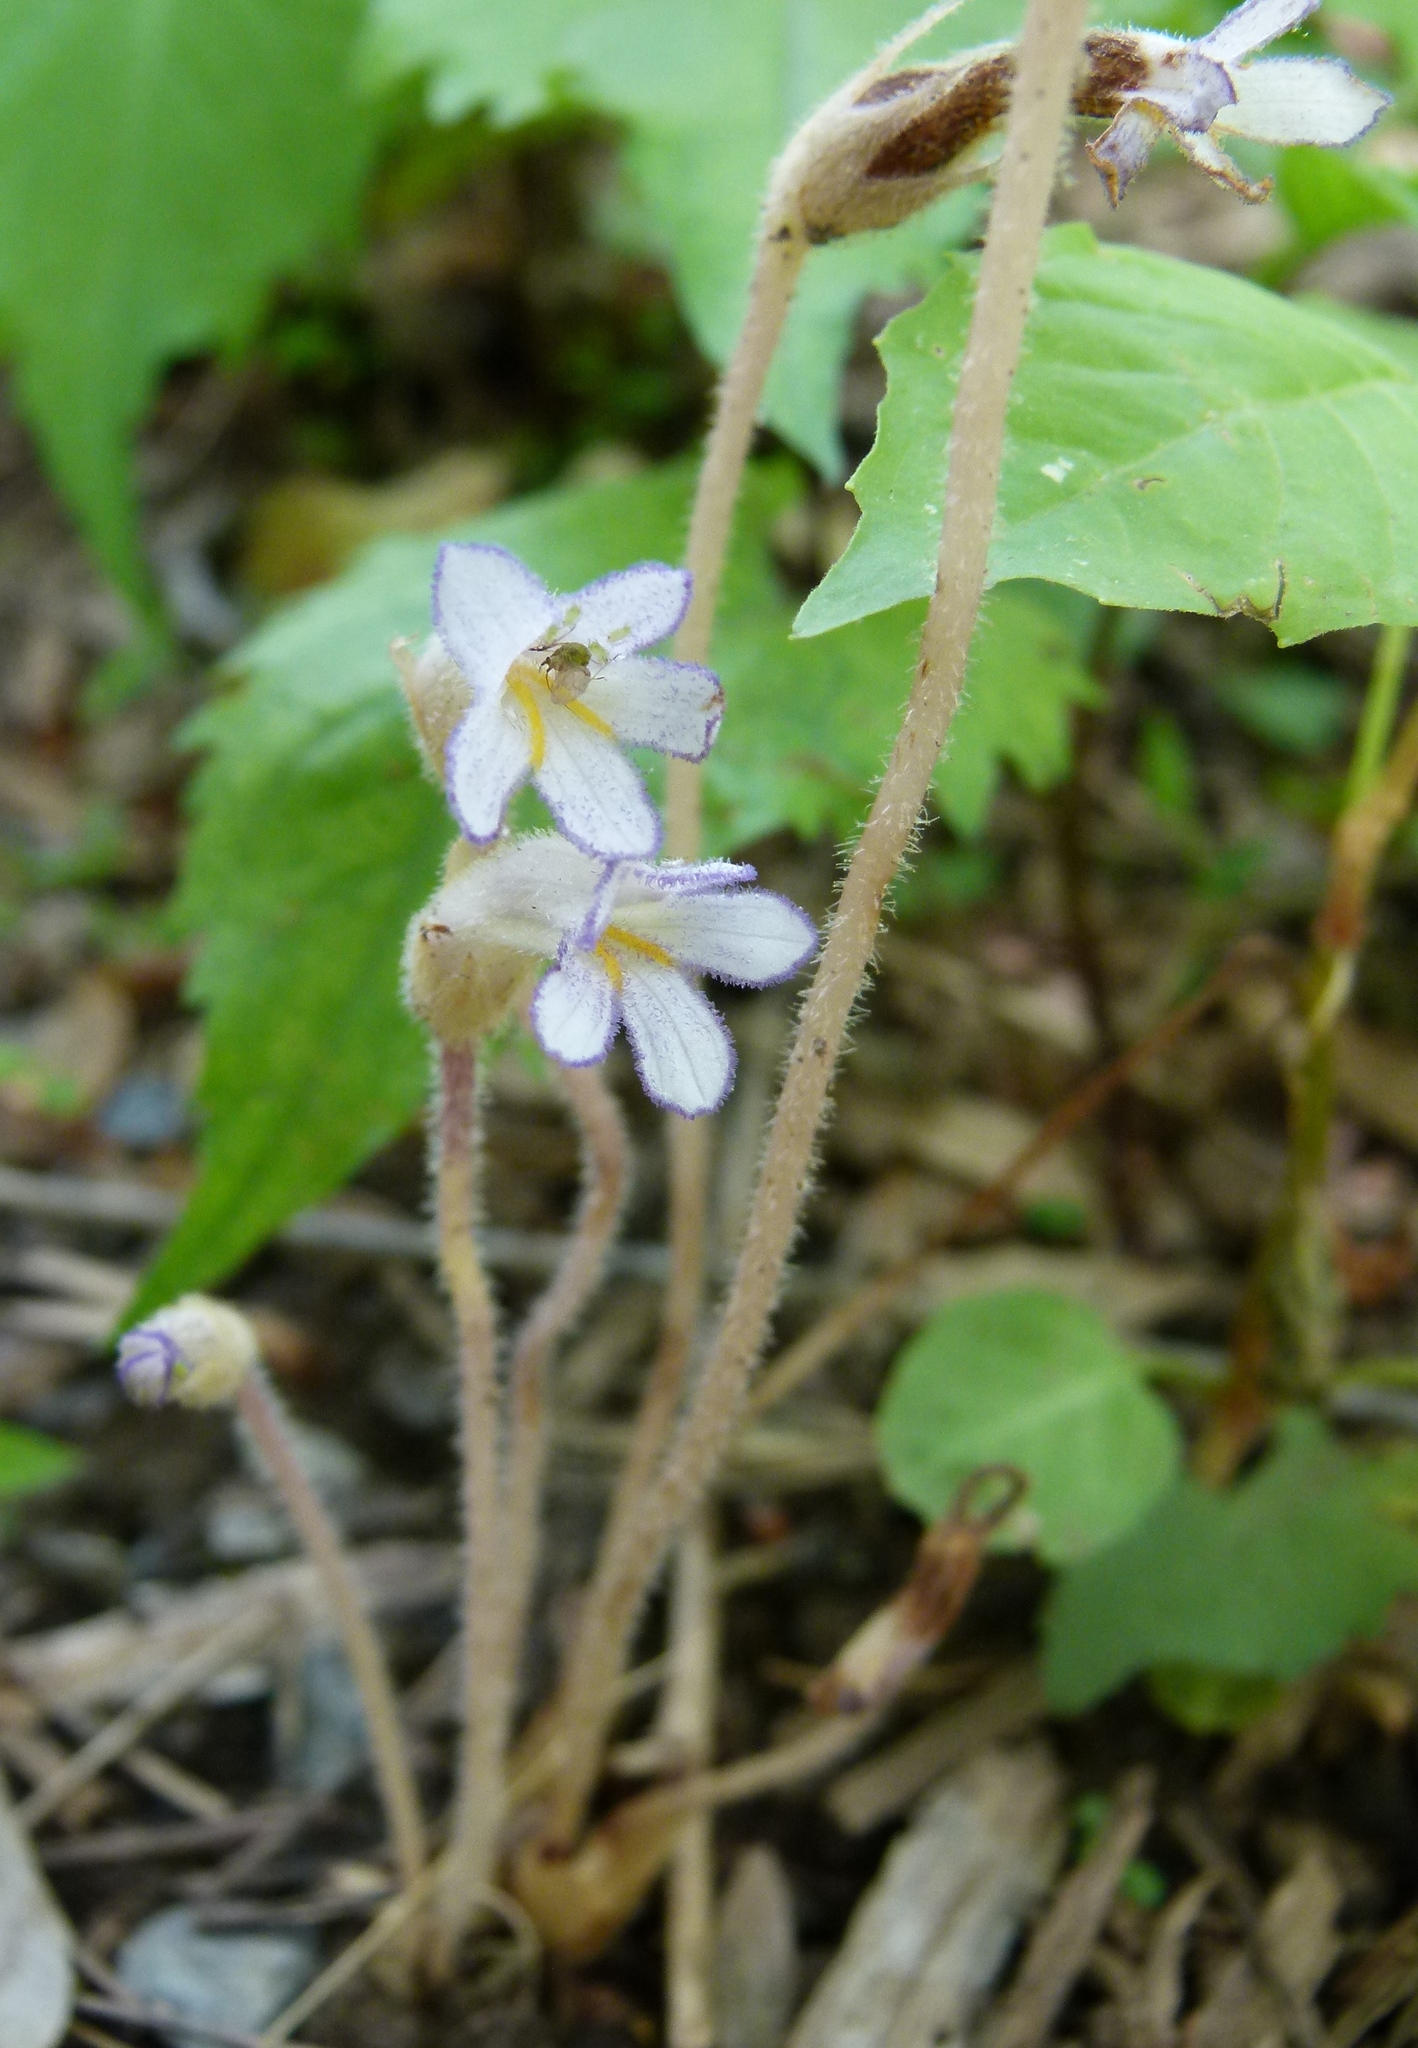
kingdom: Plantae
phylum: Tracheophyta
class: Magnoliopsida
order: Lamiales
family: Orobanchaceae
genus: Aphyllon
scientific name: Aphyllon uniflorum
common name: One-flowered broomrape
